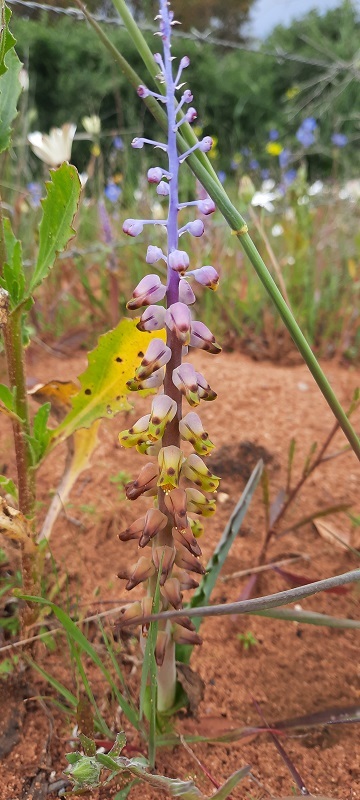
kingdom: Plantae
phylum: Tracheophyta
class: Liliopsida
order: Asparagales
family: Asparagaceae
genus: Lachenalia
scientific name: Lachenalia mutabilis
